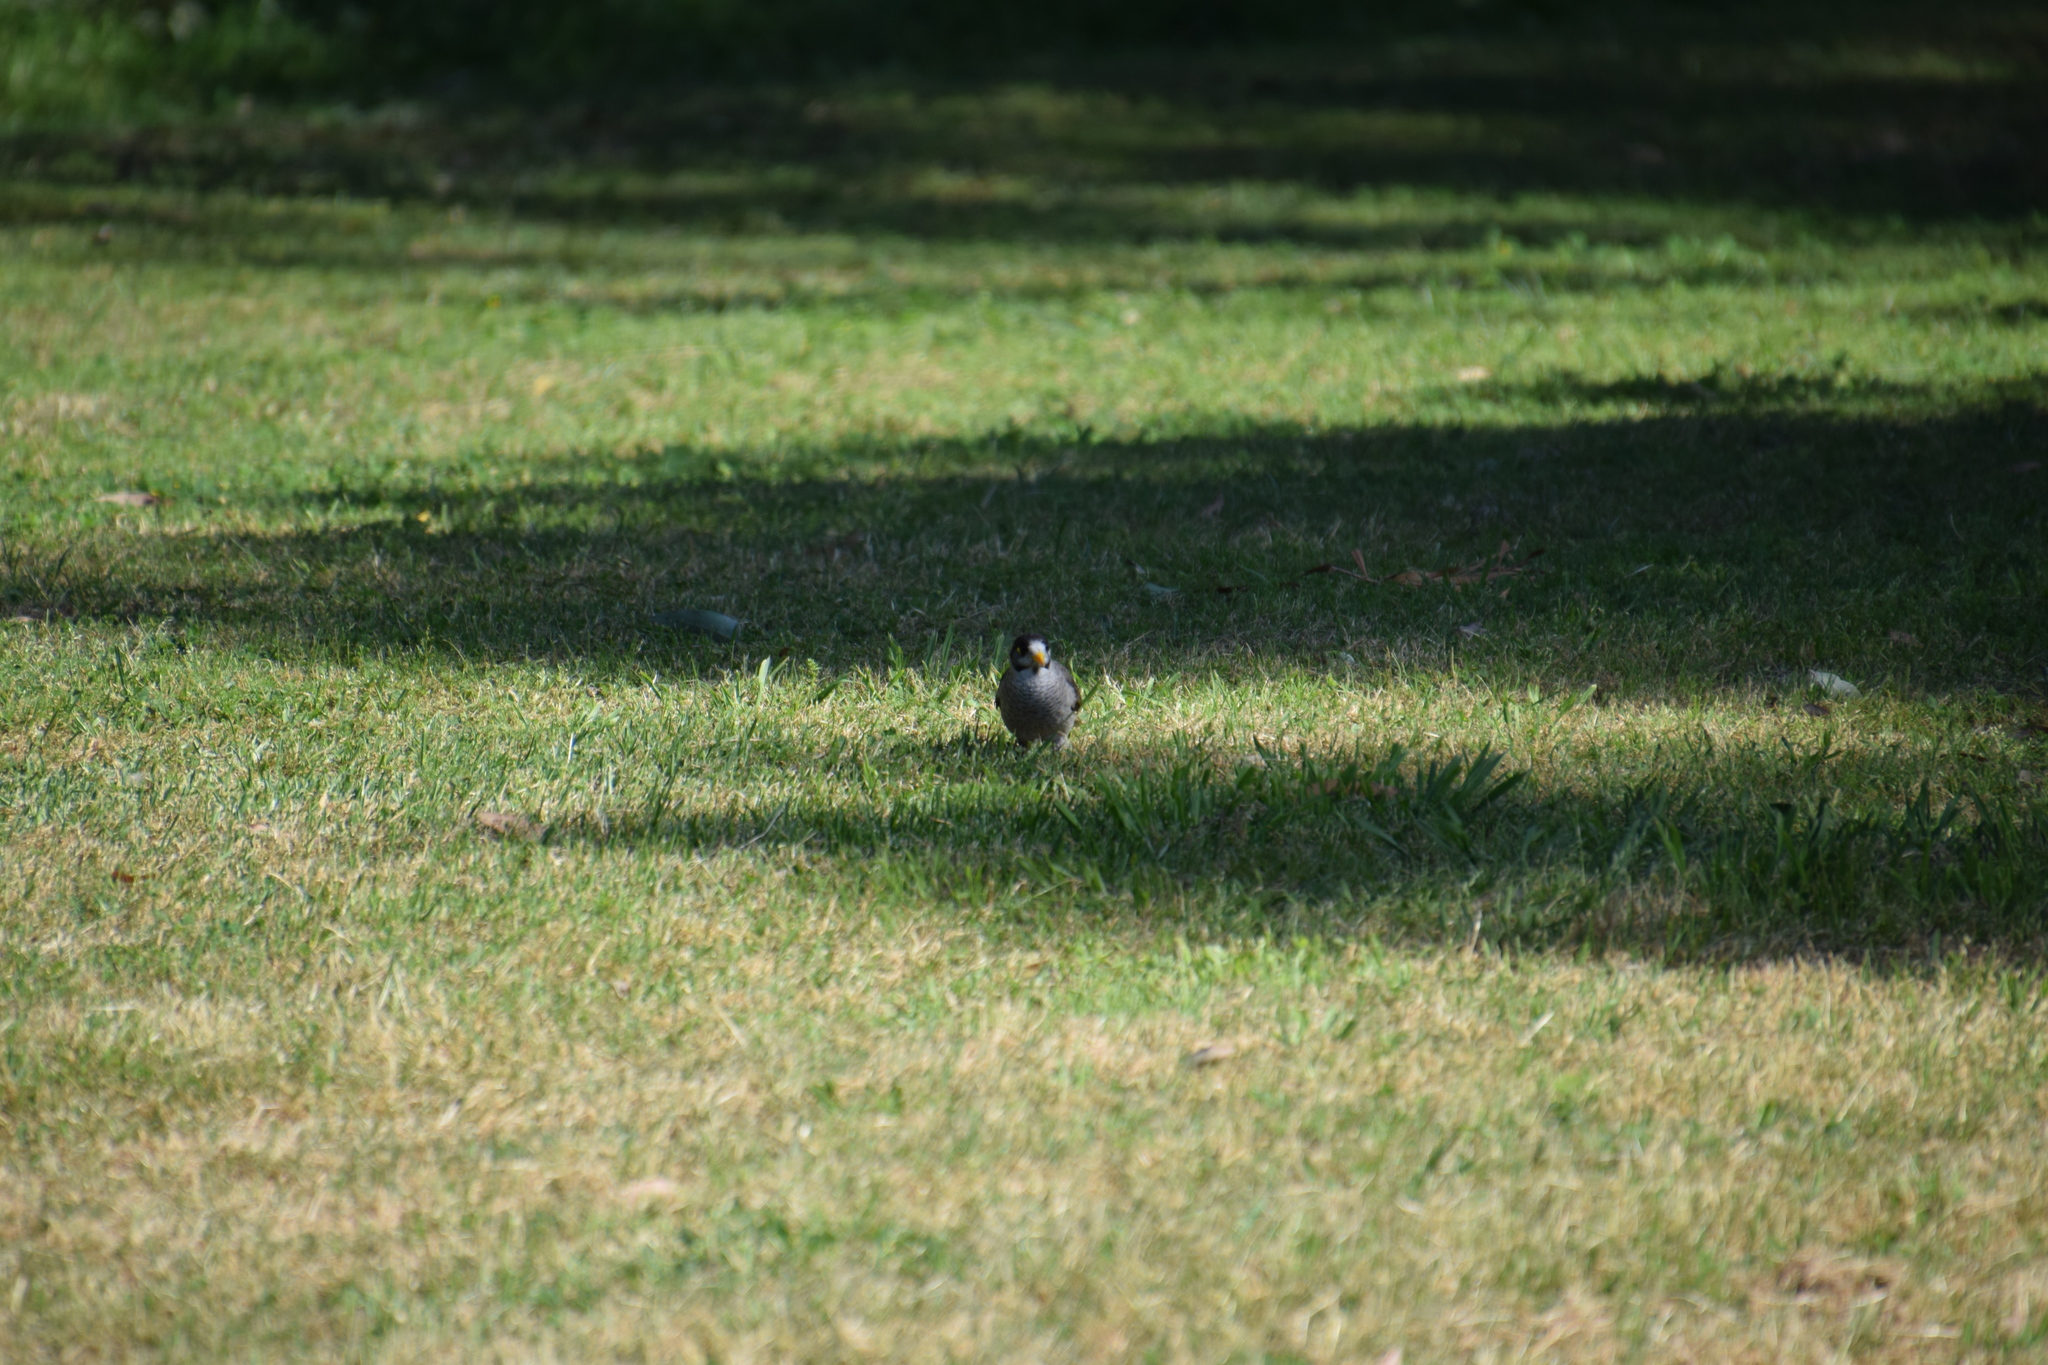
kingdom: Animalia
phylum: Chordata
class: Aves
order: Passeriformes
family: Meliphagidae
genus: Manorina
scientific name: Manorina melanocephala
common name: Noisy miner
